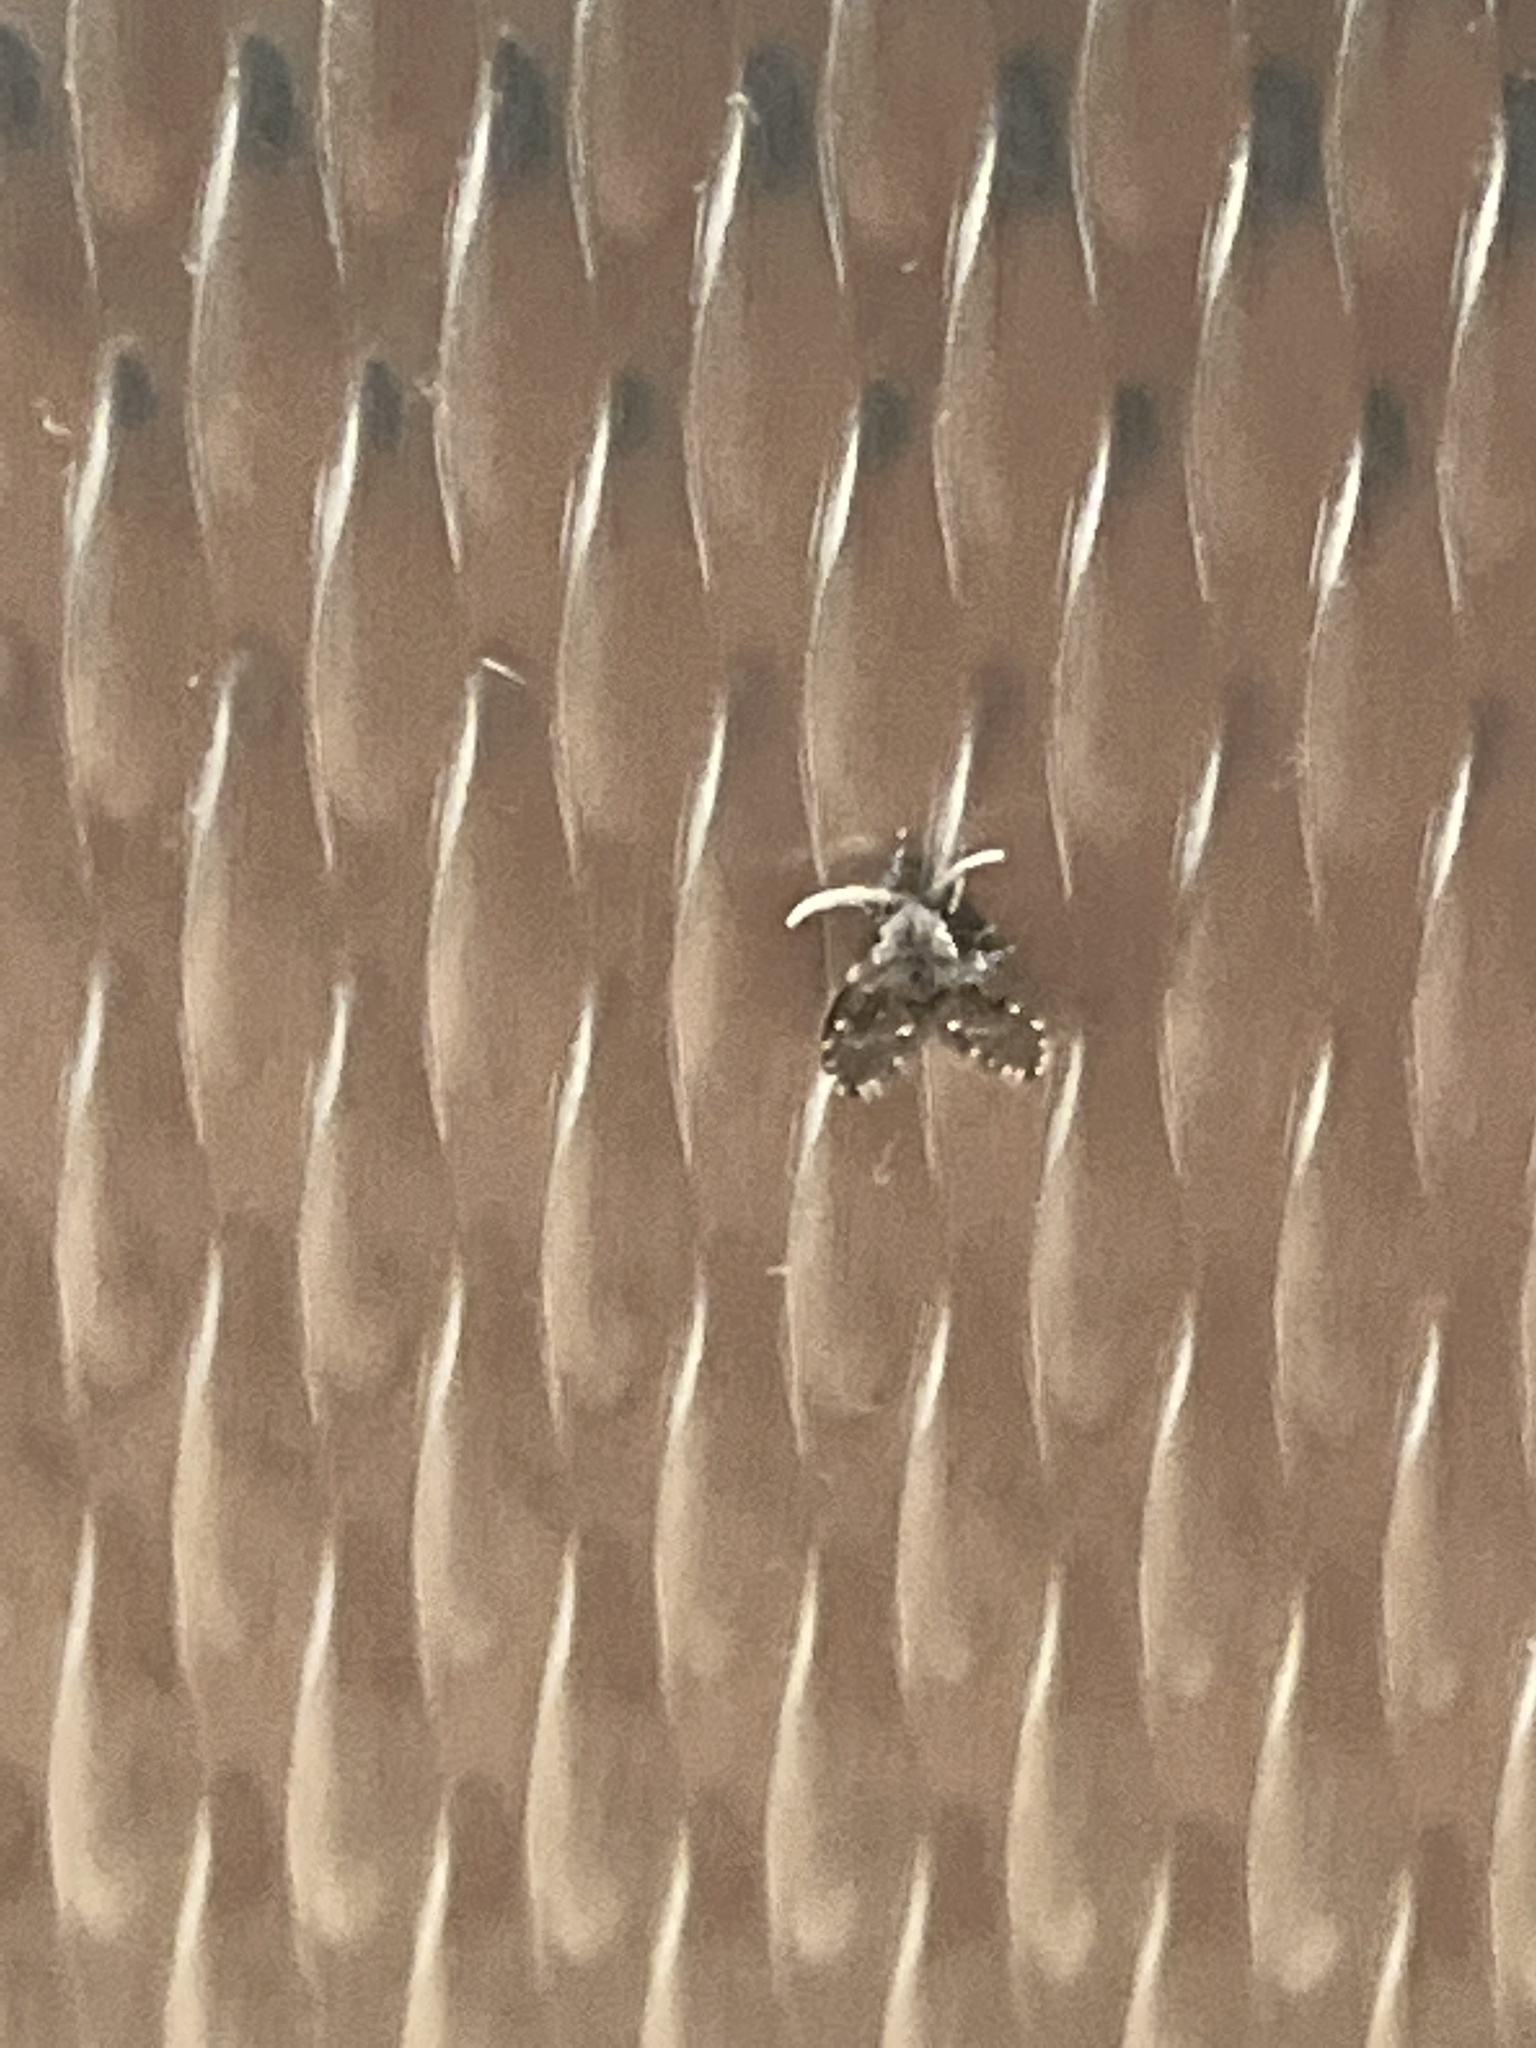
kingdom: Animalia
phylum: Arthropoda
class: Insecta
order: Diptera
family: Psychodidae
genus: Clogmia
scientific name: Clogmia albipunctatus
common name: White-spotted moth fly
